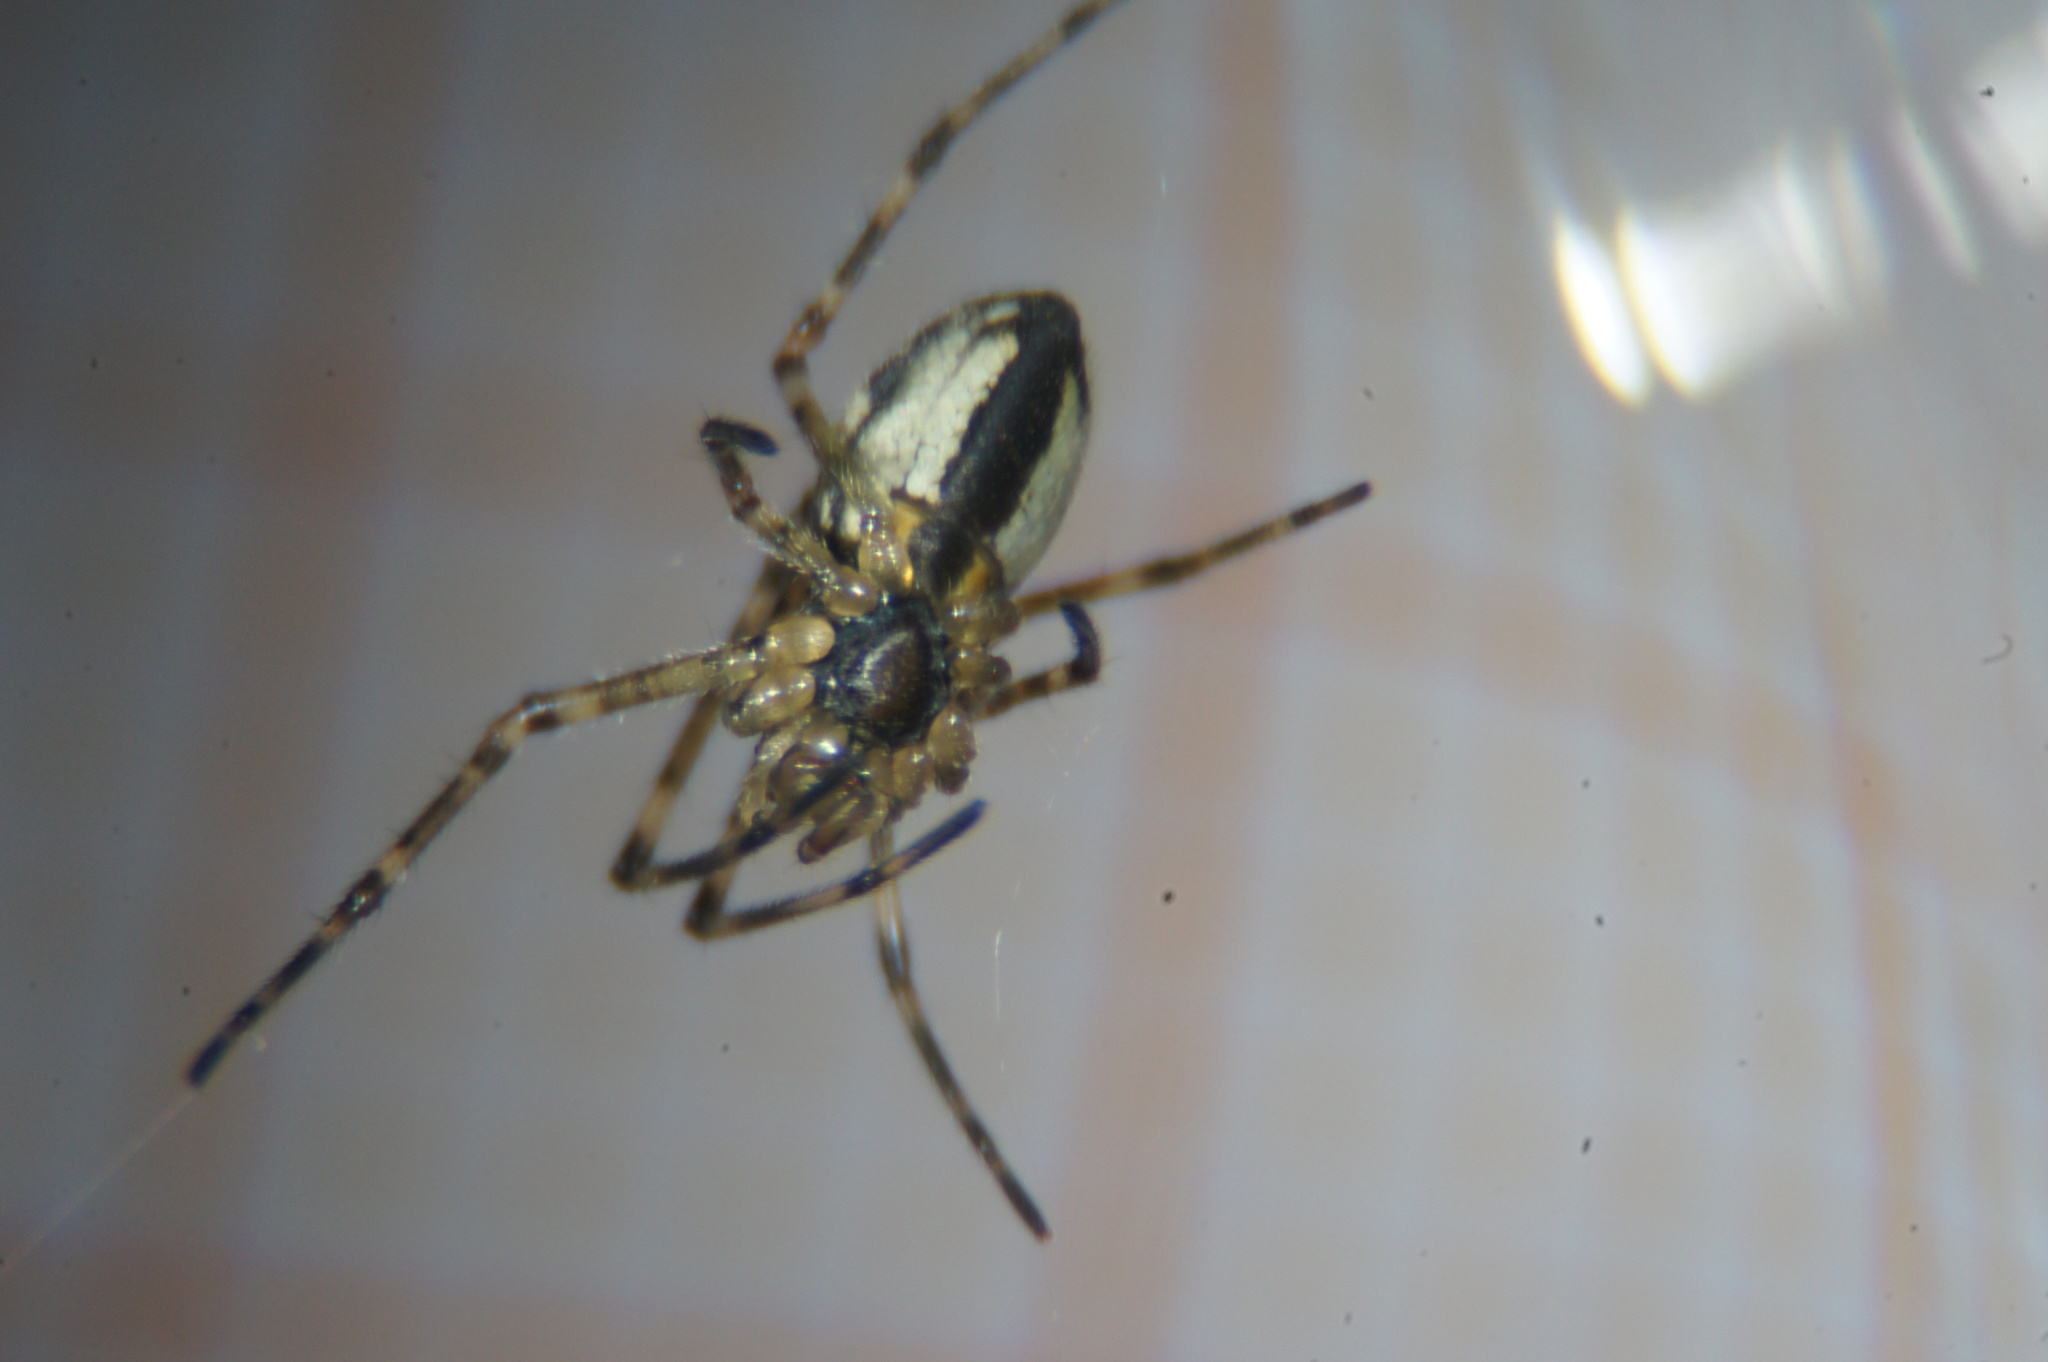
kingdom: Animalia
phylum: Arthropoda
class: Arachnida
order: Araneae
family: Tetragnathidae
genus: Tetragnatha
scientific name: Tetragnatha obtusa
